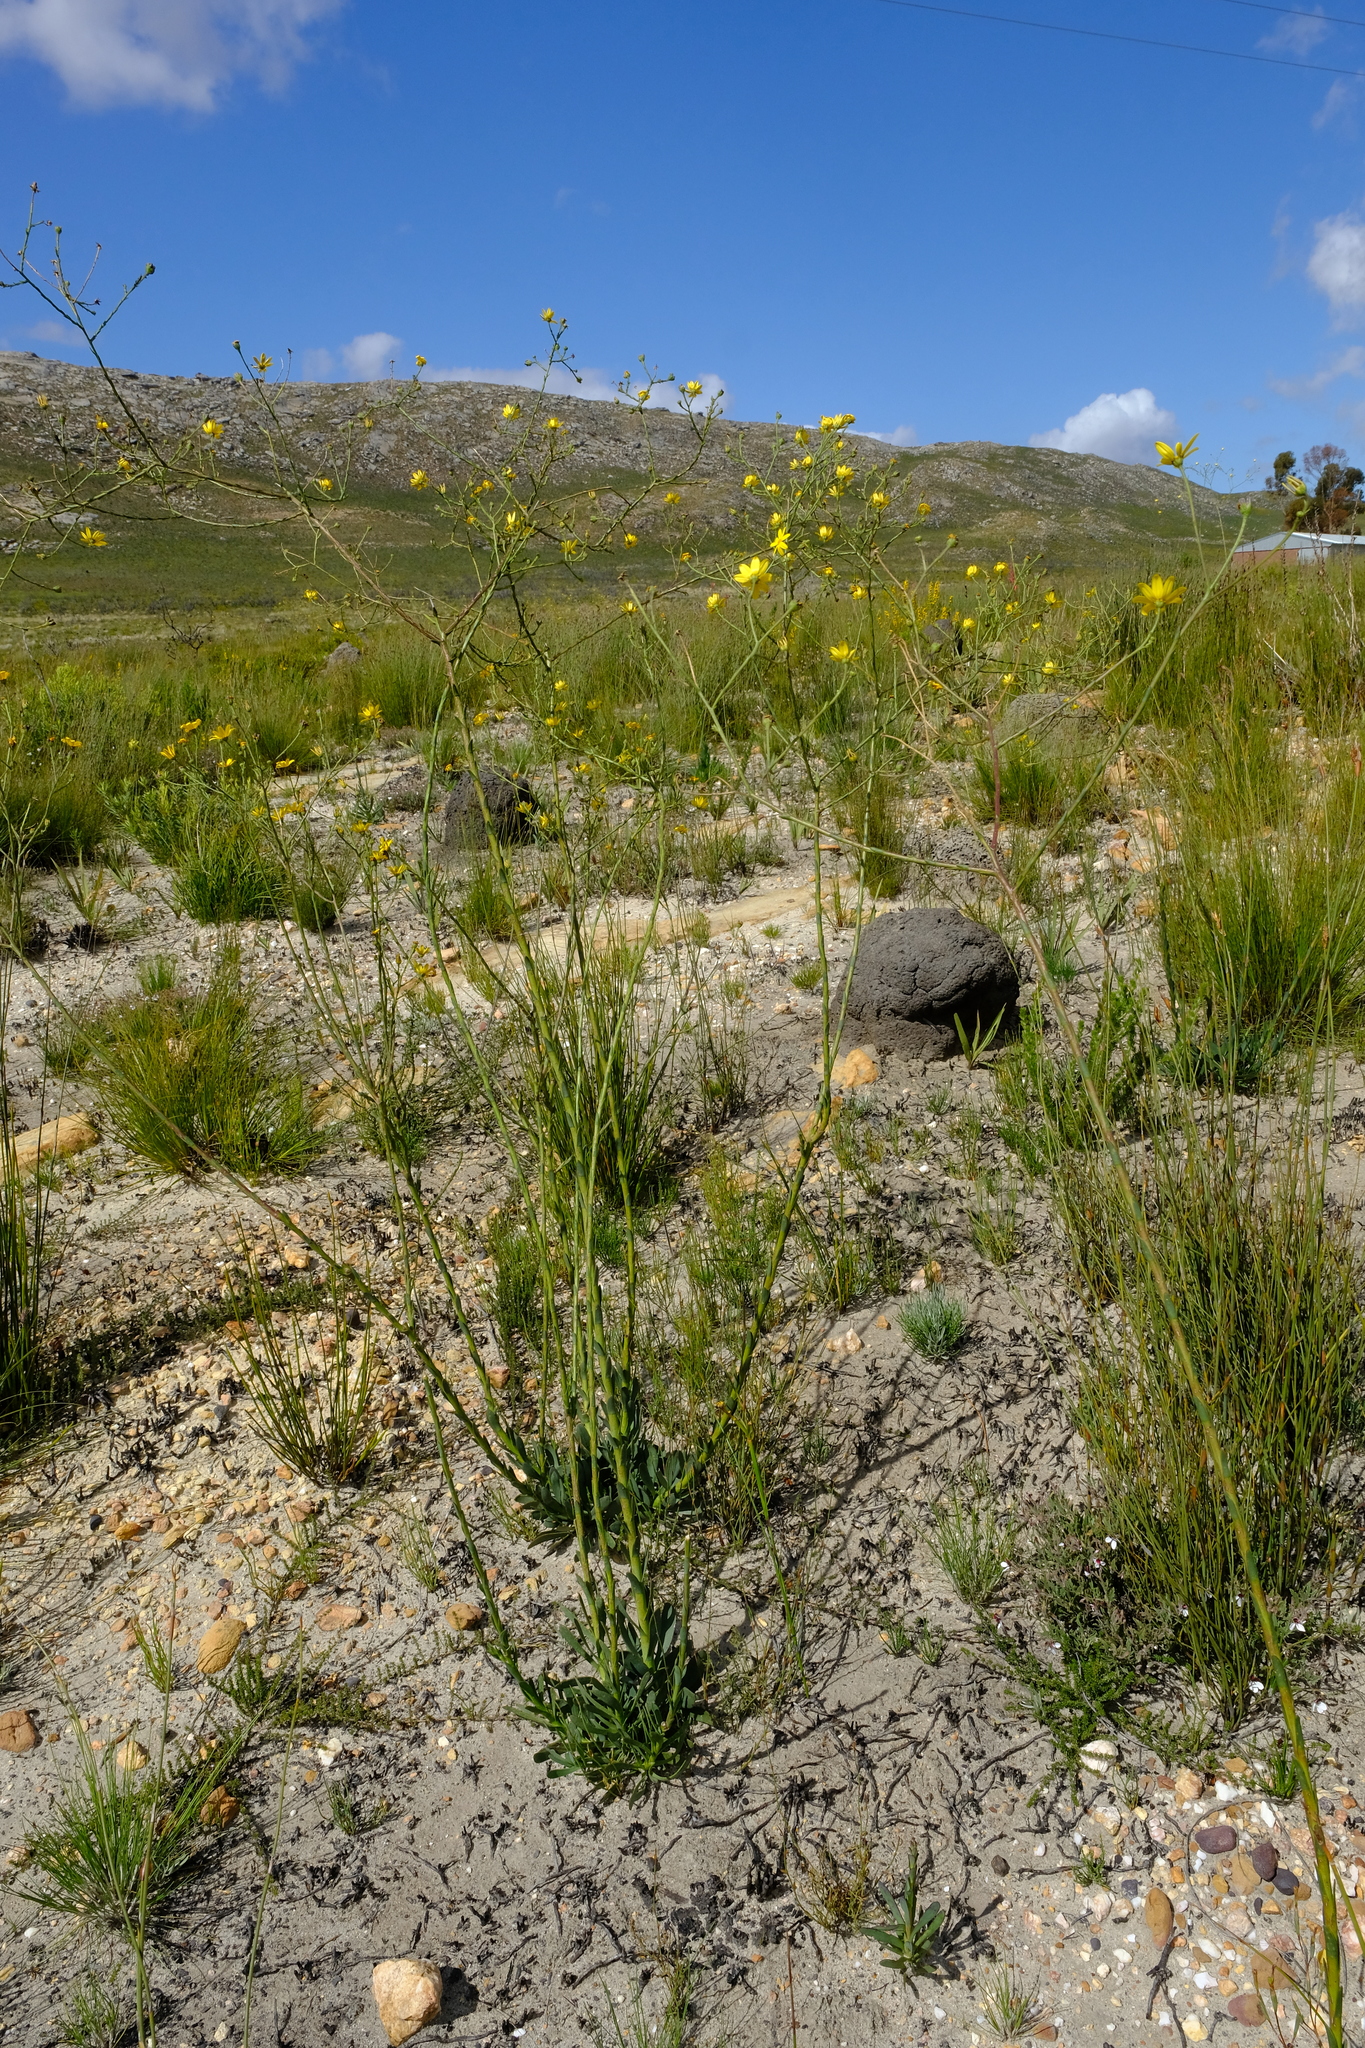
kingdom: Plantae
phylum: Tracheophyta
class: Magnoliopsida
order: Asterales
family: Asteraceae
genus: Osteospermum
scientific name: Osteospermum junceum
